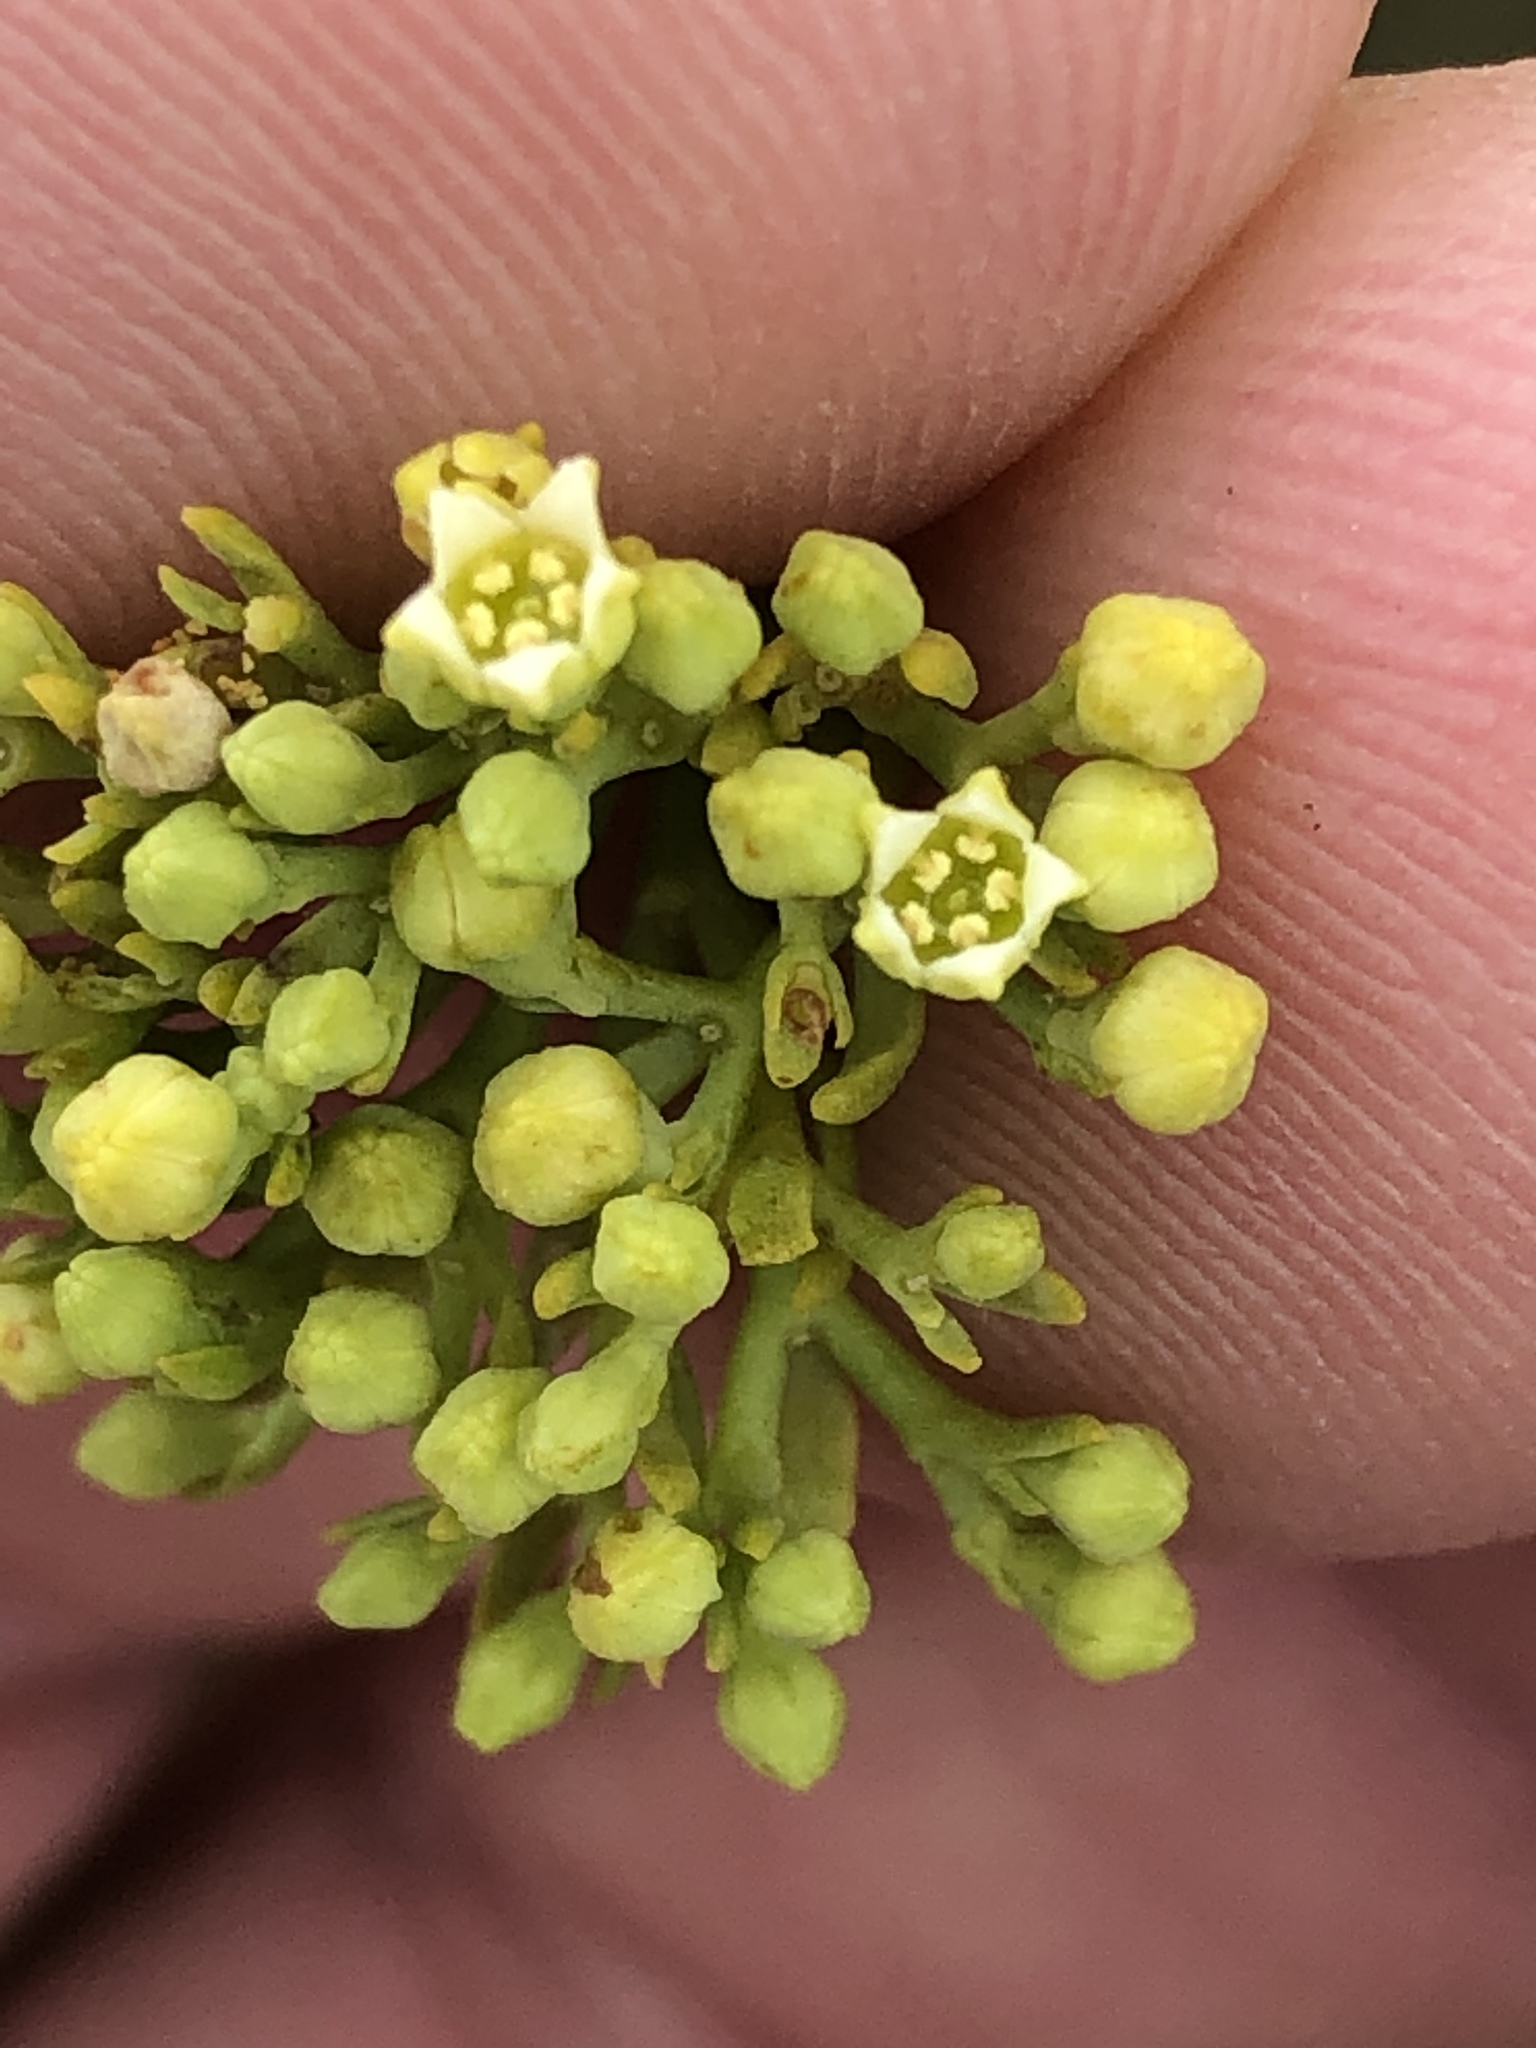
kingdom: Plantae
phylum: Tracheophyta
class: Magnoliopsida
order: Santalales
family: Thesiaceae
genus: Thesium
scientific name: Thesium strictum
